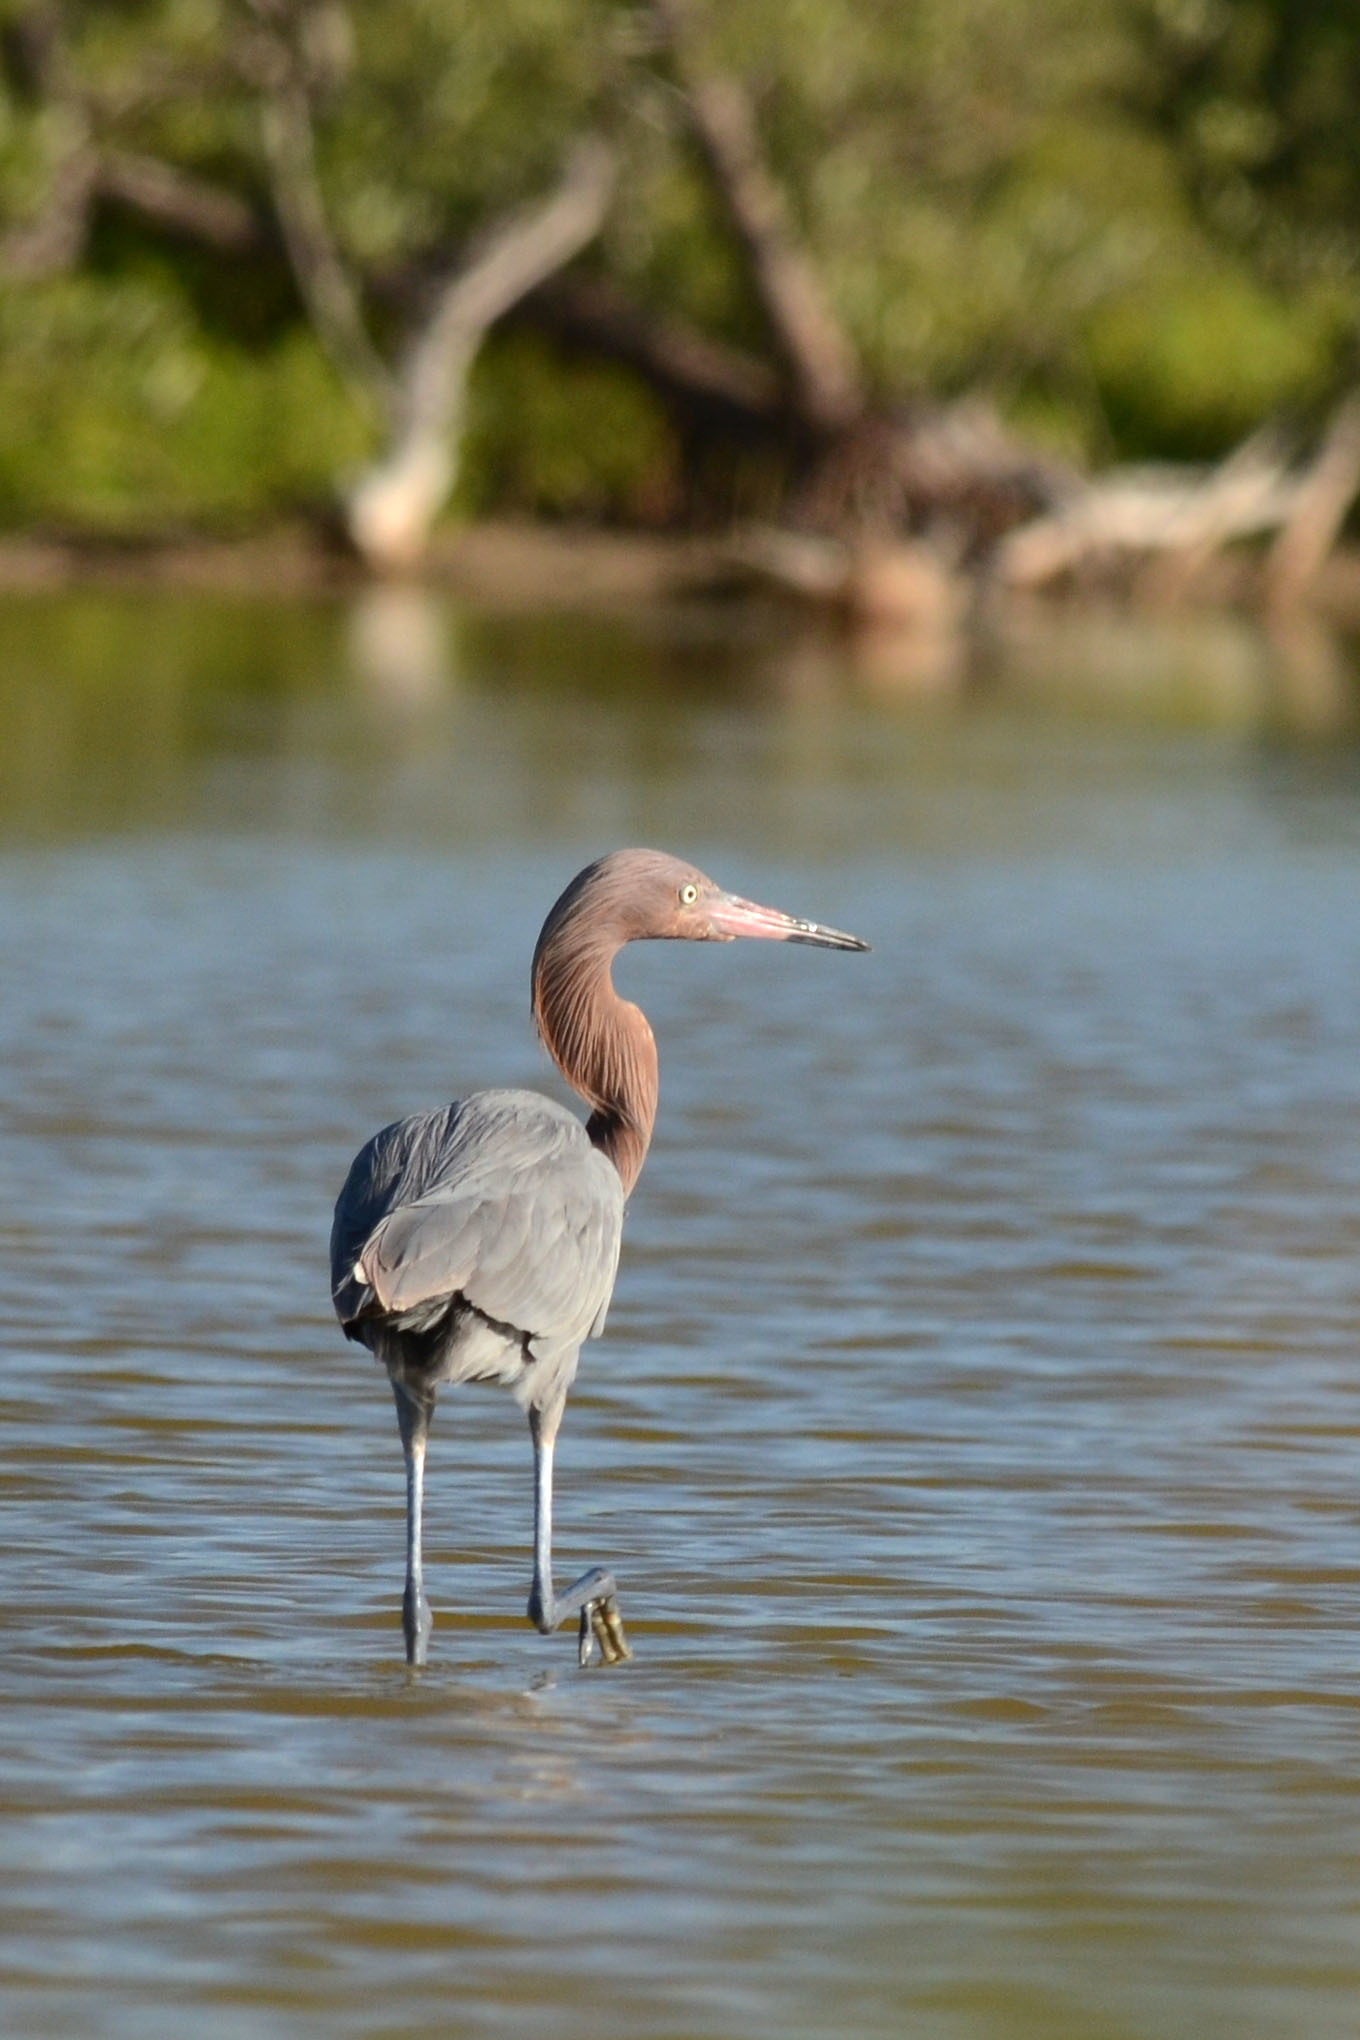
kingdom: Animalia
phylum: Chordata
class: Aves
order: Pelecaniformes
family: Ardeidae
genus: Egretta
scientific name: Egretta rufescens
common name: Reddish egret
